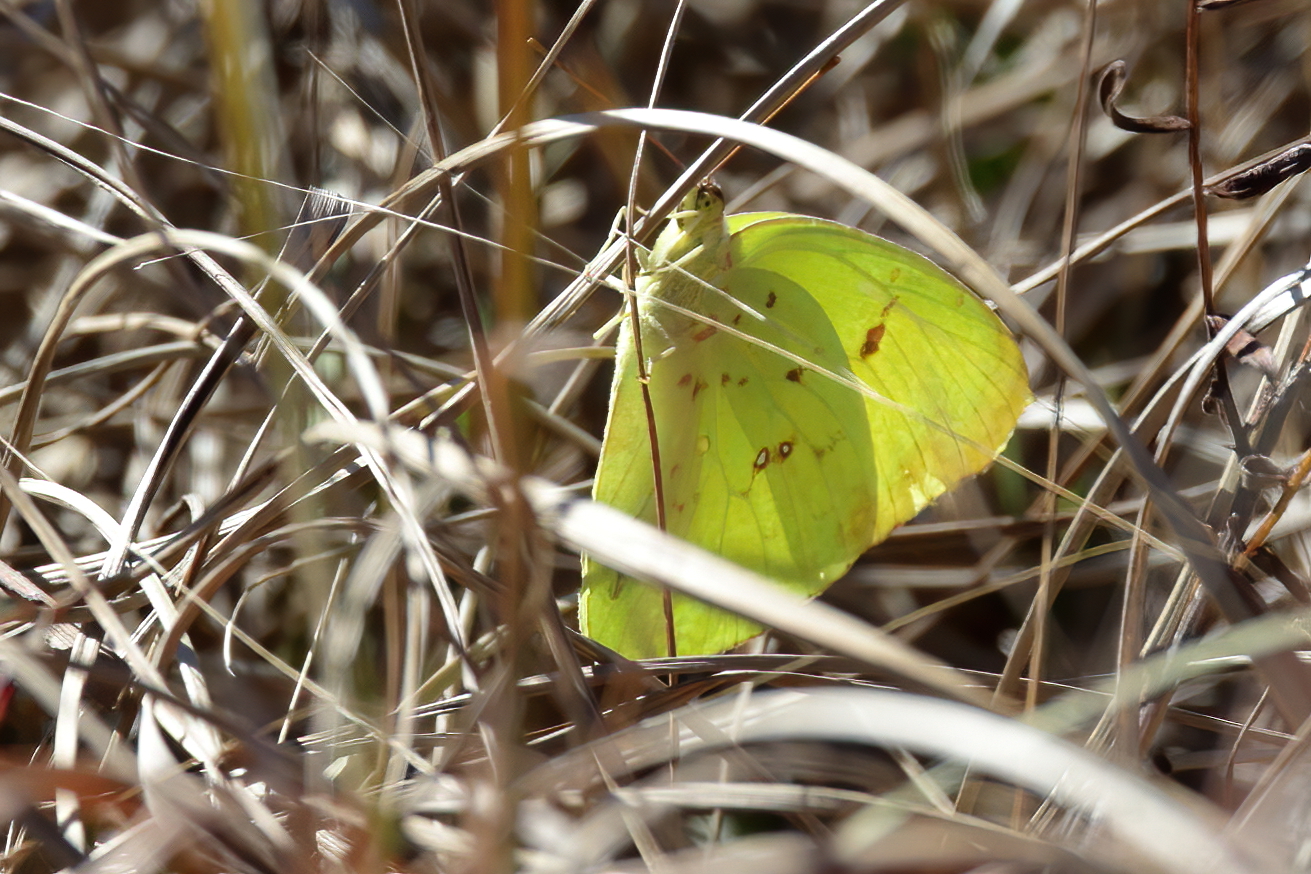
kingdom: Animalia
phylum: Arthropoda
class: Insecta
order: Lepidoptera
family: Pieridae
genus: Phoebis
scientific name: Phoebis sennae
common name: Cloudless sulphur
